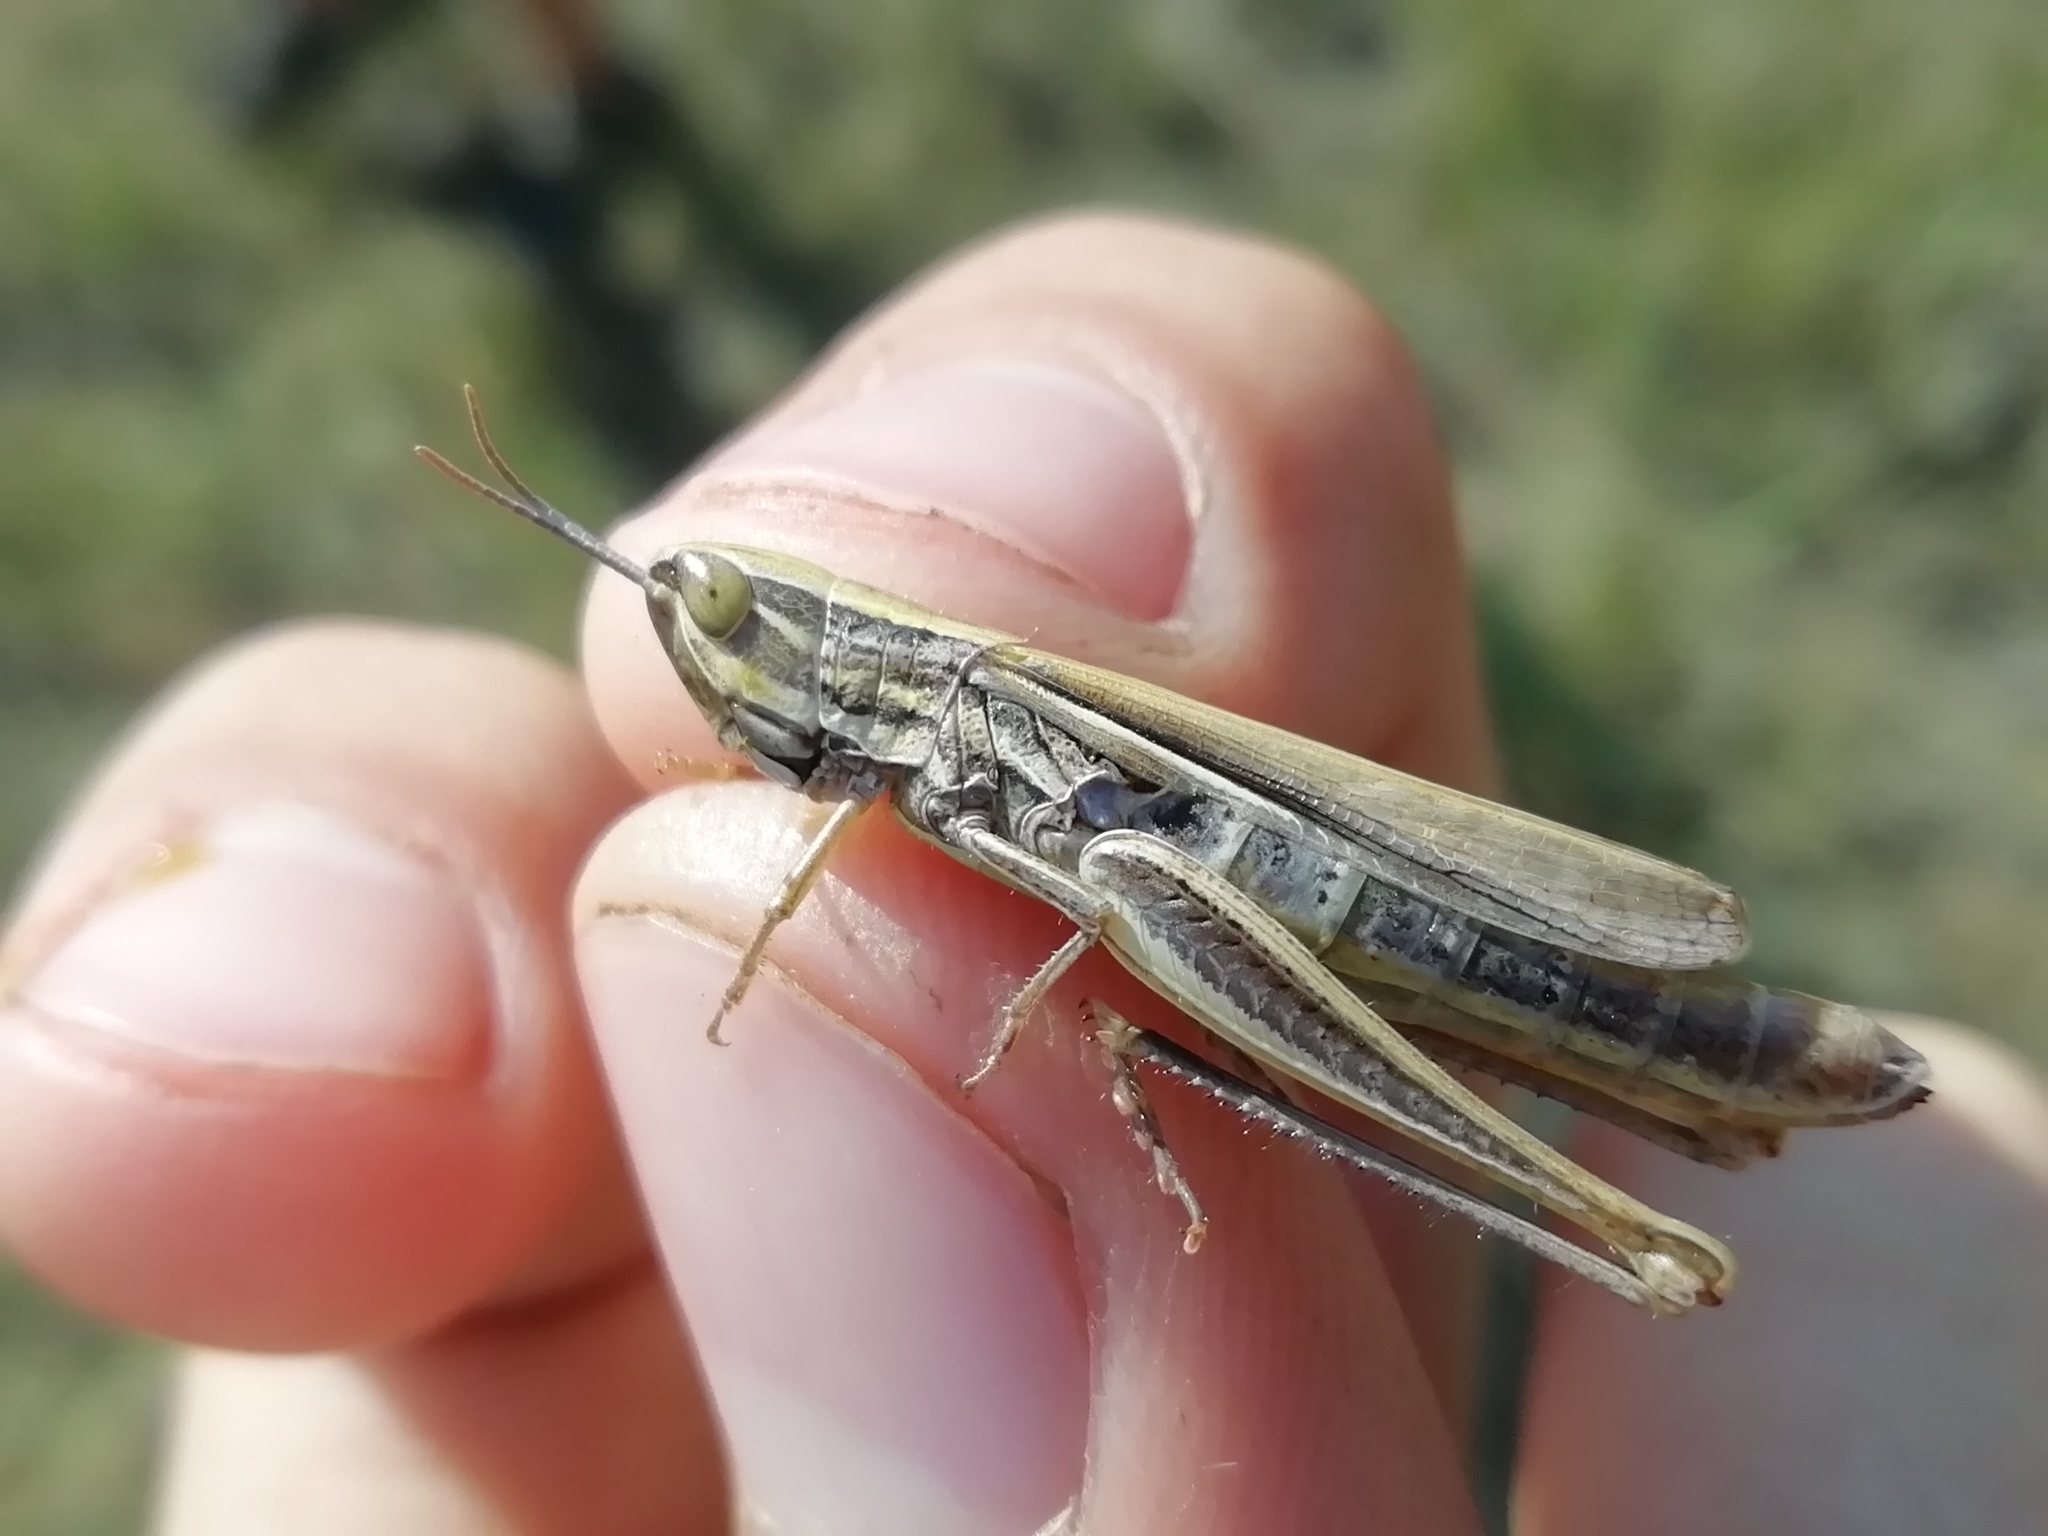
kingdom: Animalia
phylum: Arthropoda
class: Insecta
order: Orthoptera
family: Acrididae
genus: Euchorthippus
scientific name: Euchorthippus pulvinatus
